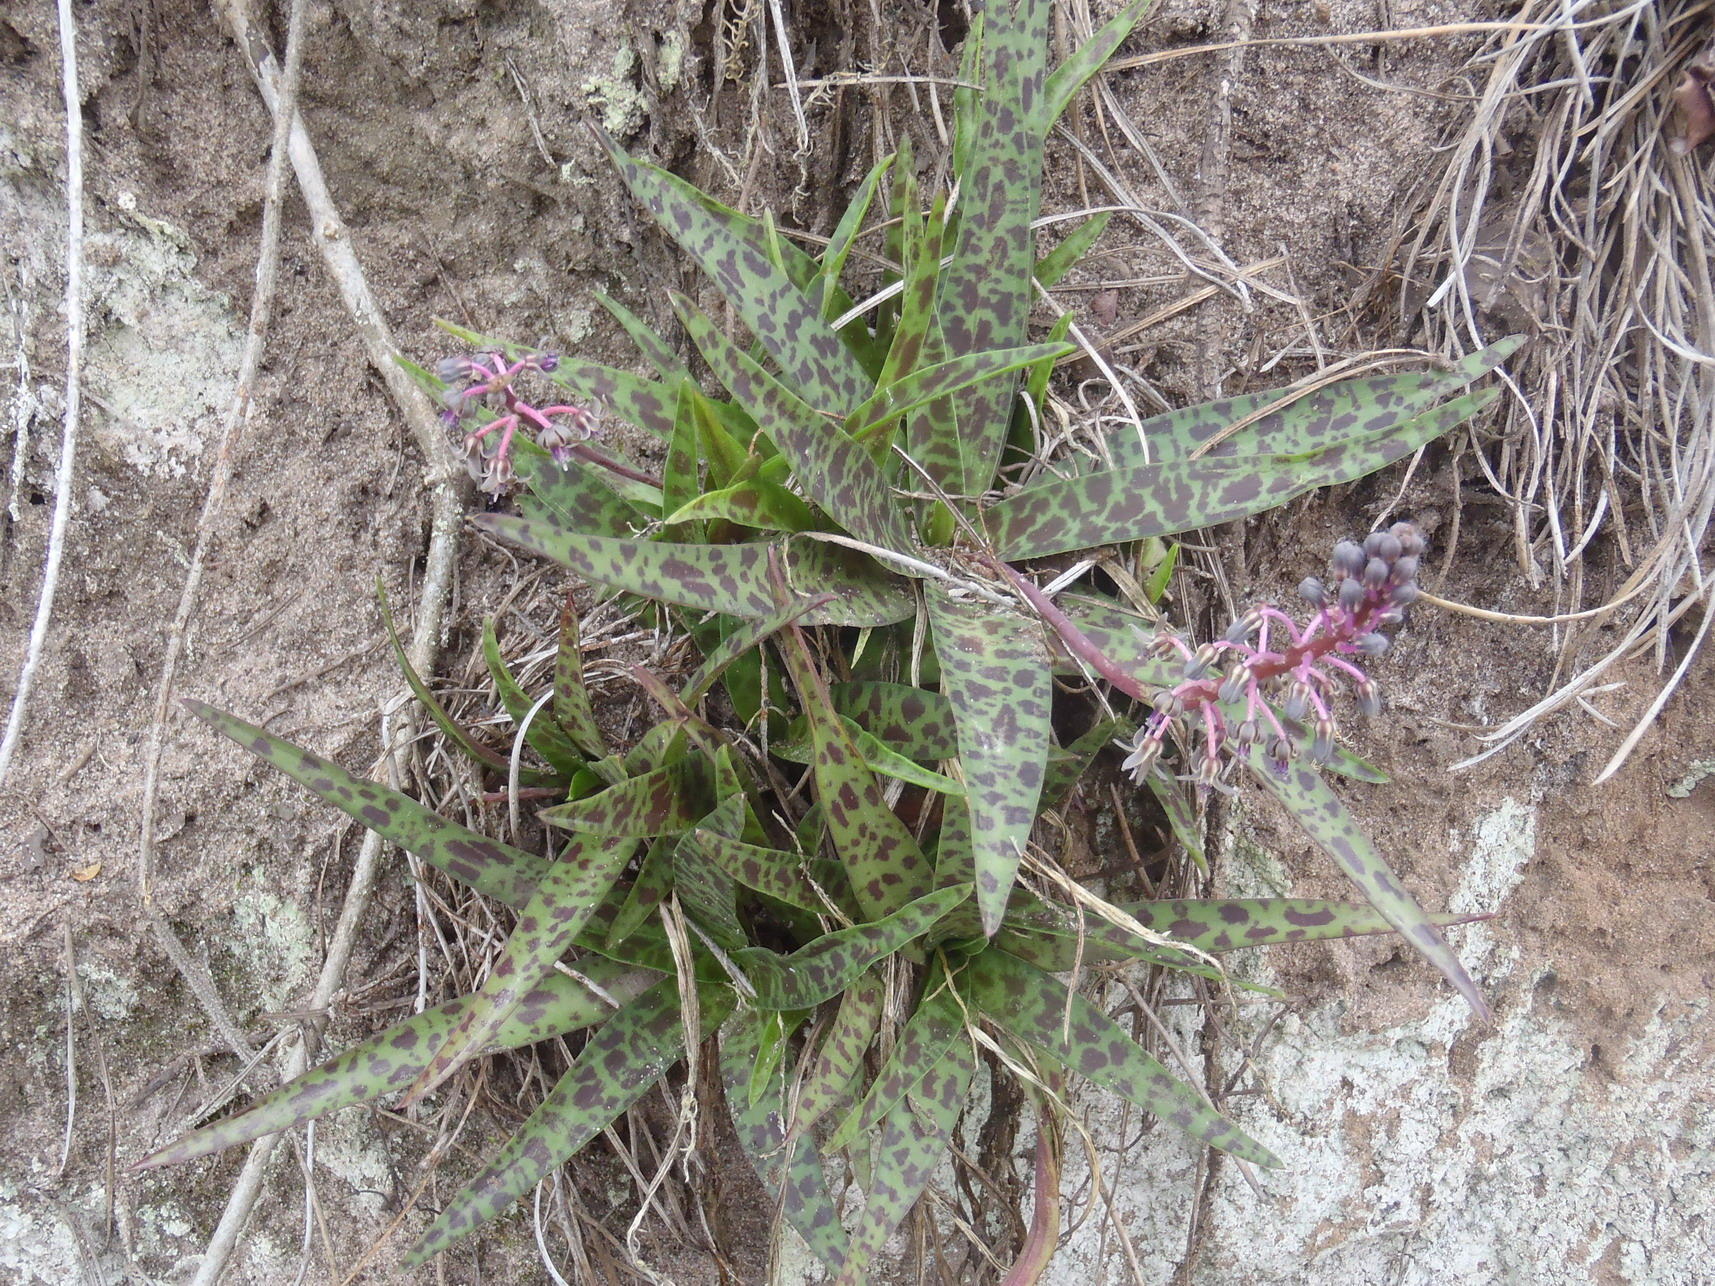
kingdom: Plantae
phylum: Tracheophyta
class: Liliopsida
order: Asparagales
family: Asparagaceae
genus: Ledebouria
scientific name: Ledebouria revoluta
